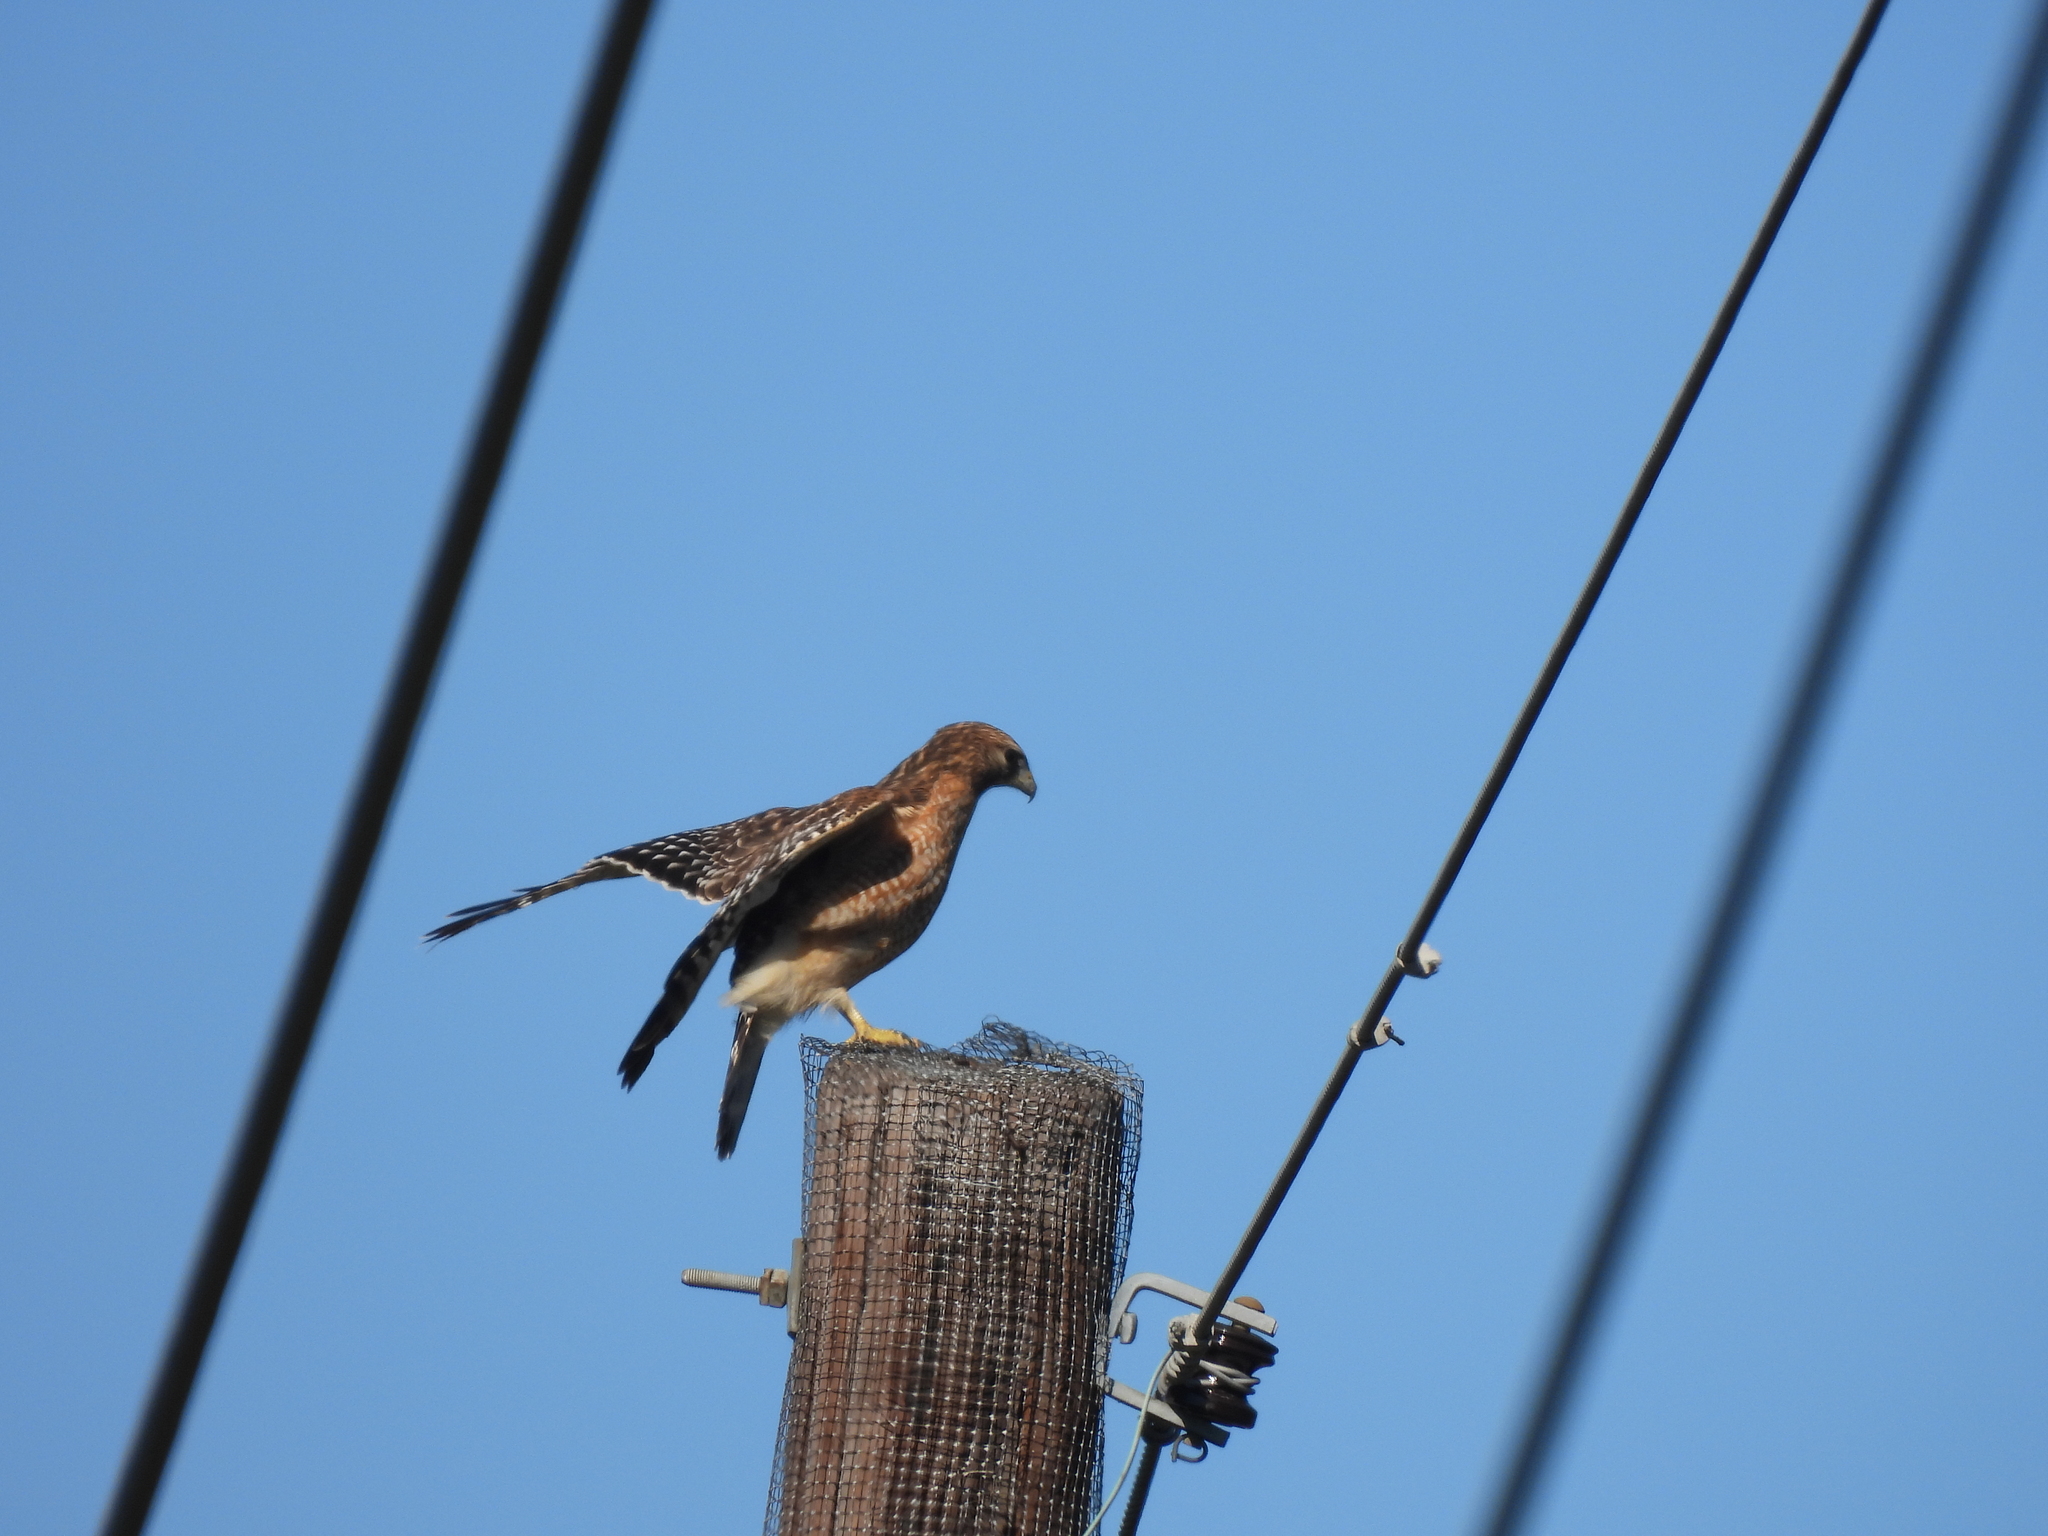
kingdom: Animalia
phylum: Chordata
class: Aves
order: Accipitriformes
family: Accipitridae
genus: Buteo
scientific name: Buteo lineatus
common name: Red-shouldered hawk
